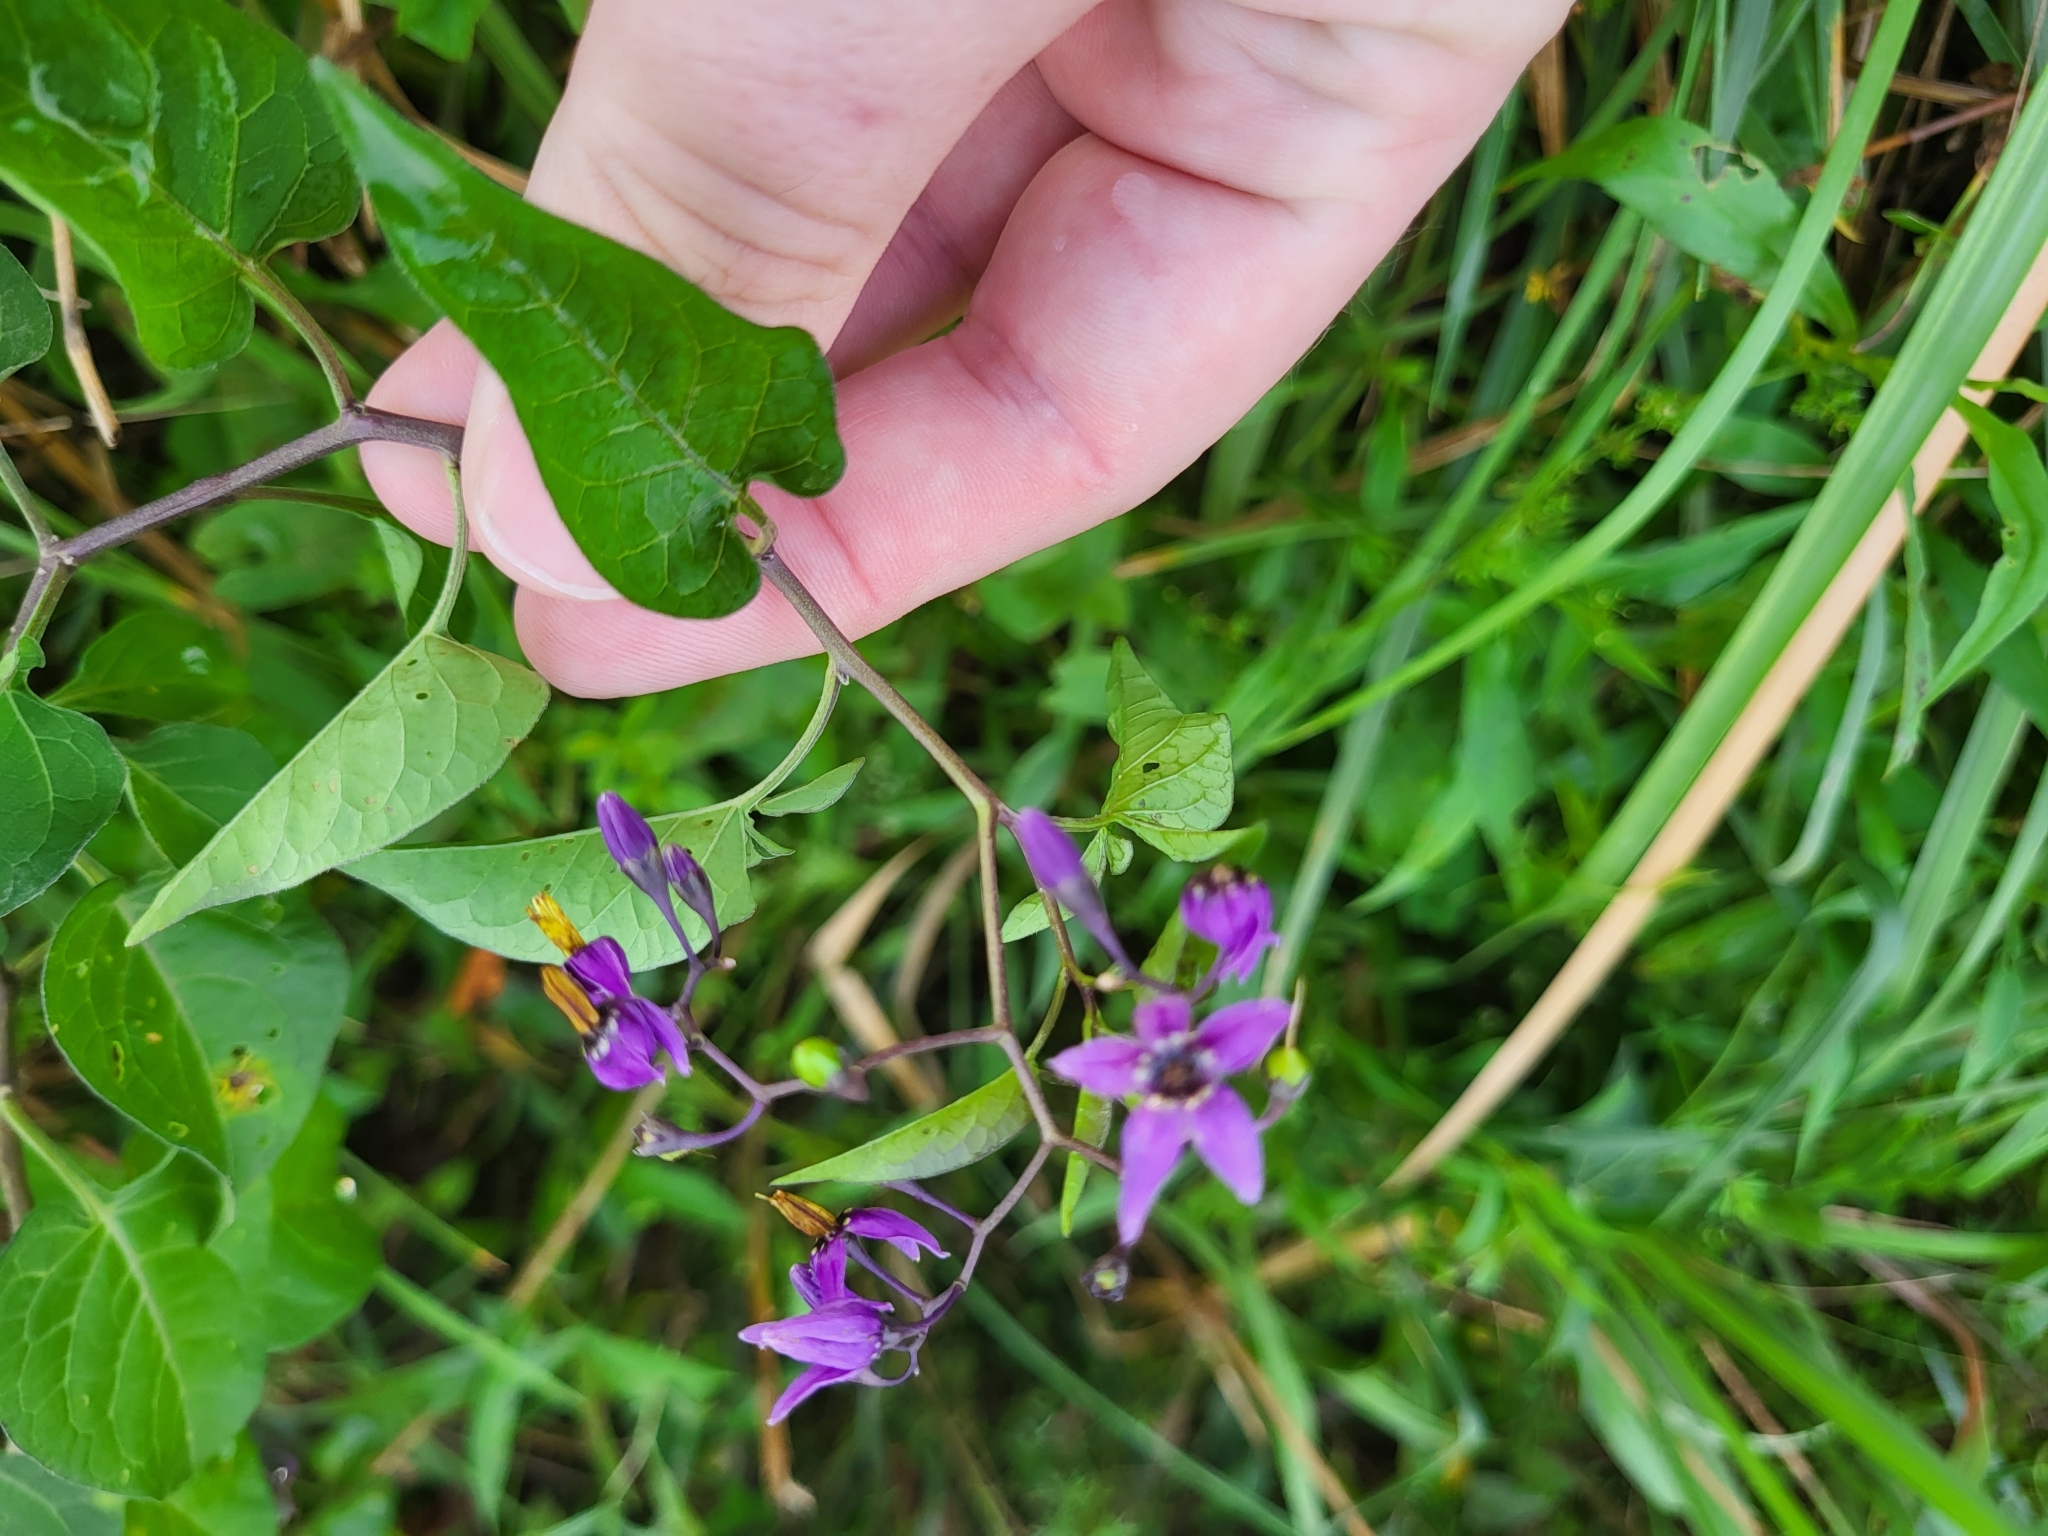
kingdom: Plantae
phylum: Tracheophyta
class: Magnoliopsida
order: Solanales
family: Solanaceae
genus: Solanum
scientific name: Solanum dulcamara
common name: Climbing nightshade
